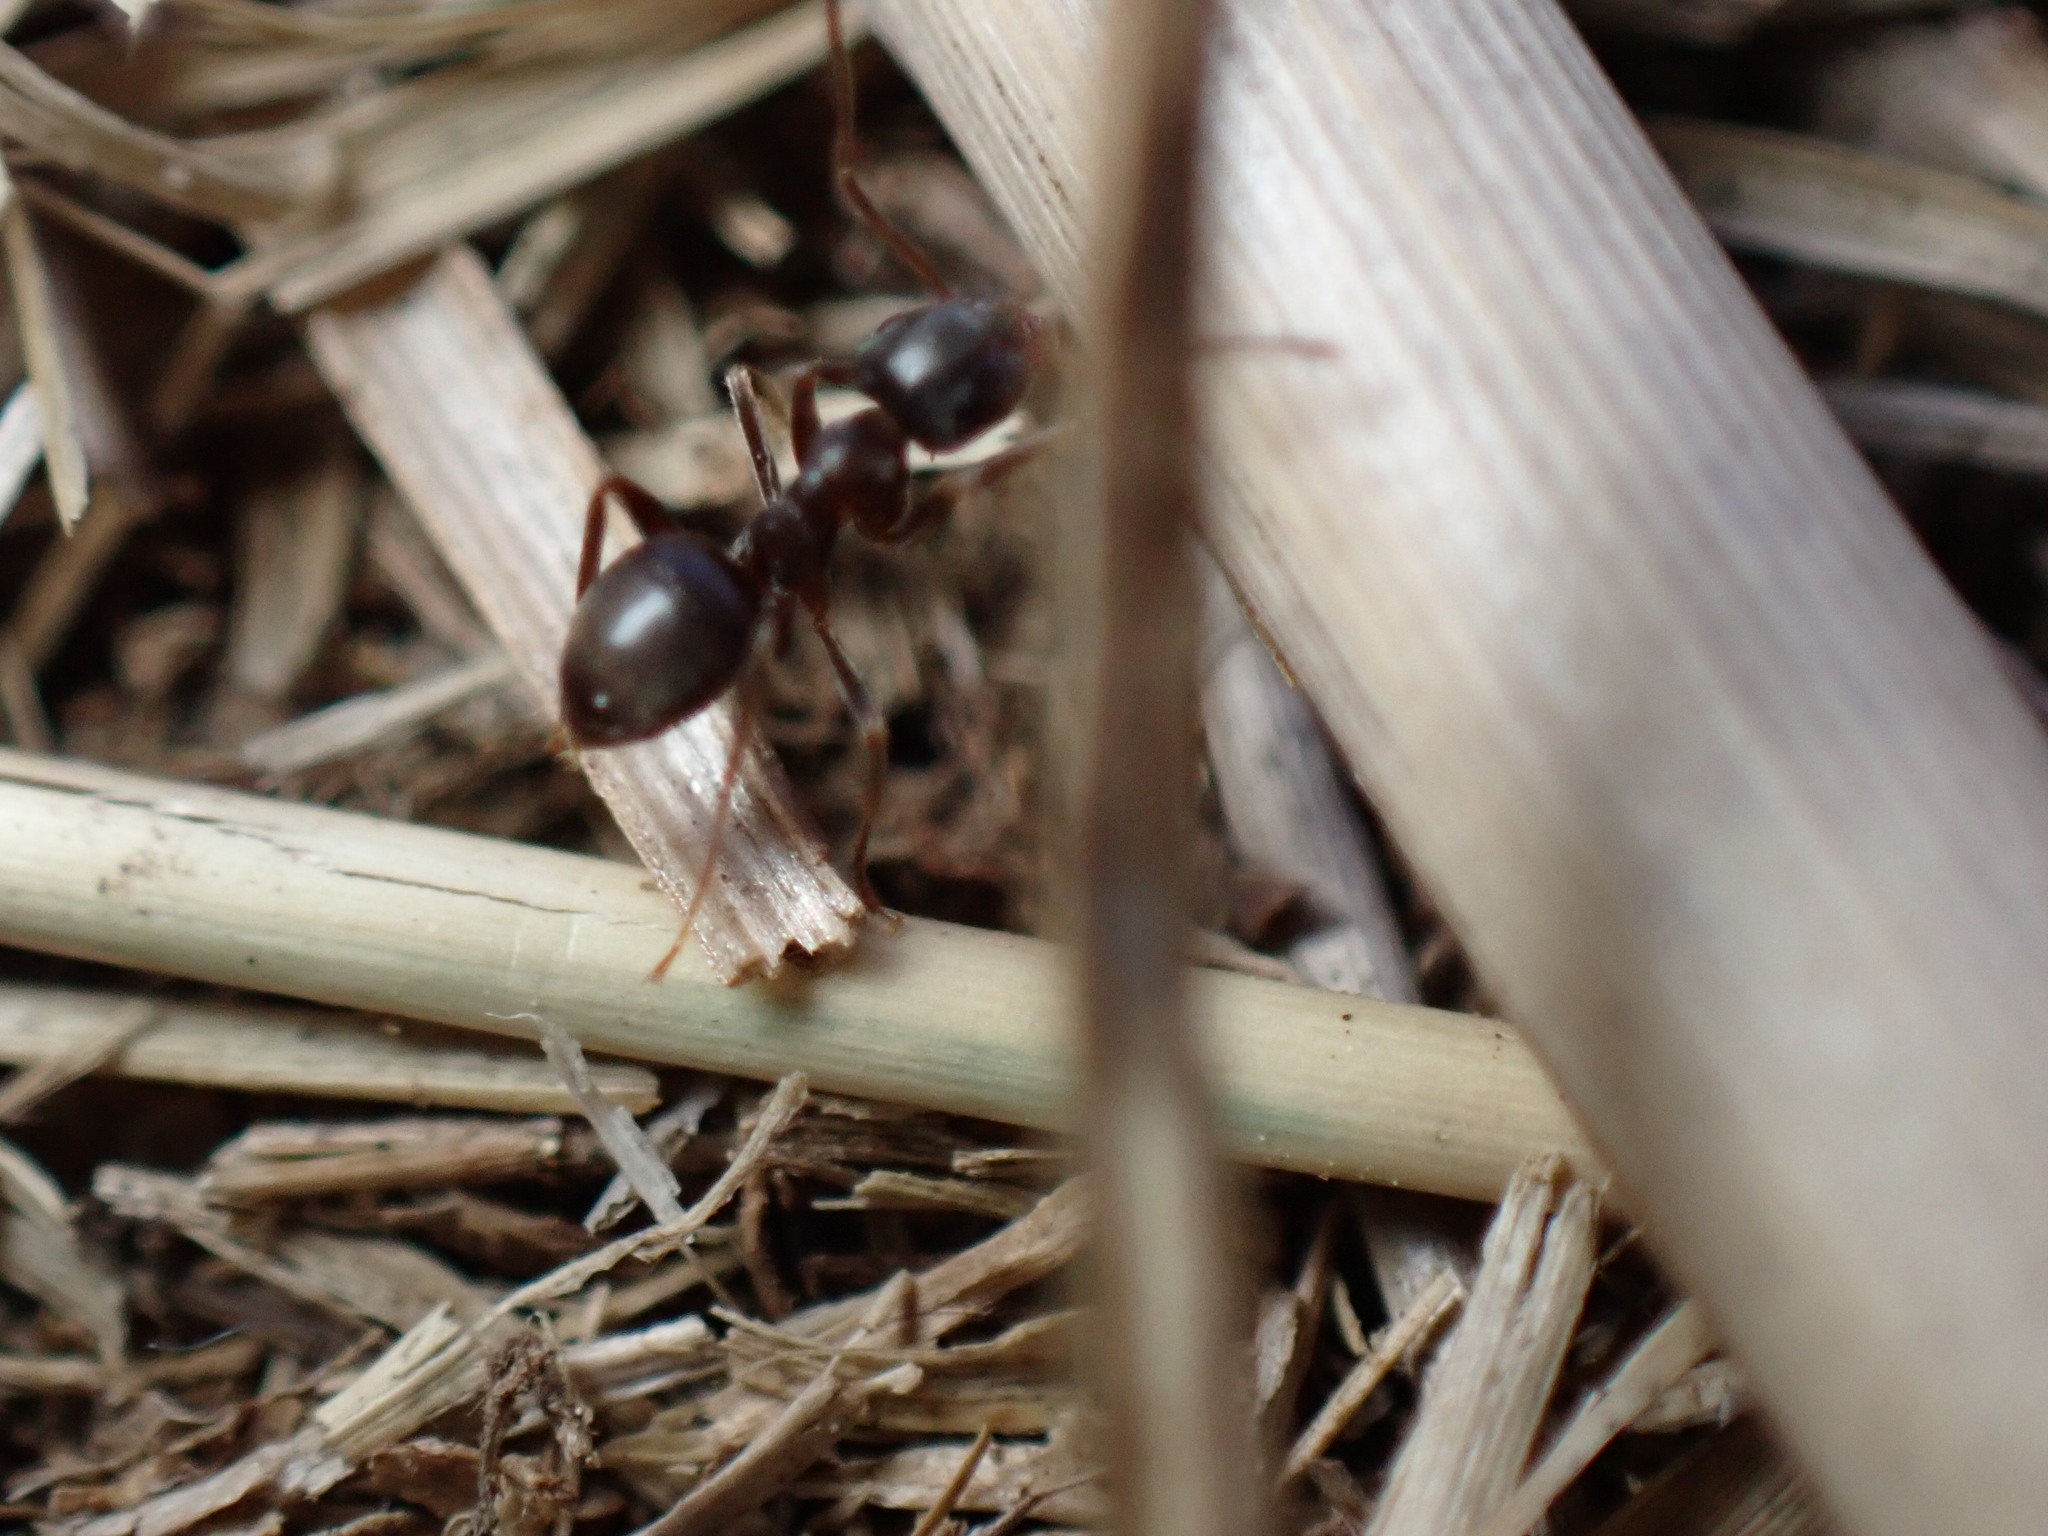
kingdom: Animalia
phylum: Arthropoda
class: Insecta
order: Hymenoptera
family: Formicidae
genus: Lasius
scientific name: Lasius japonicus
